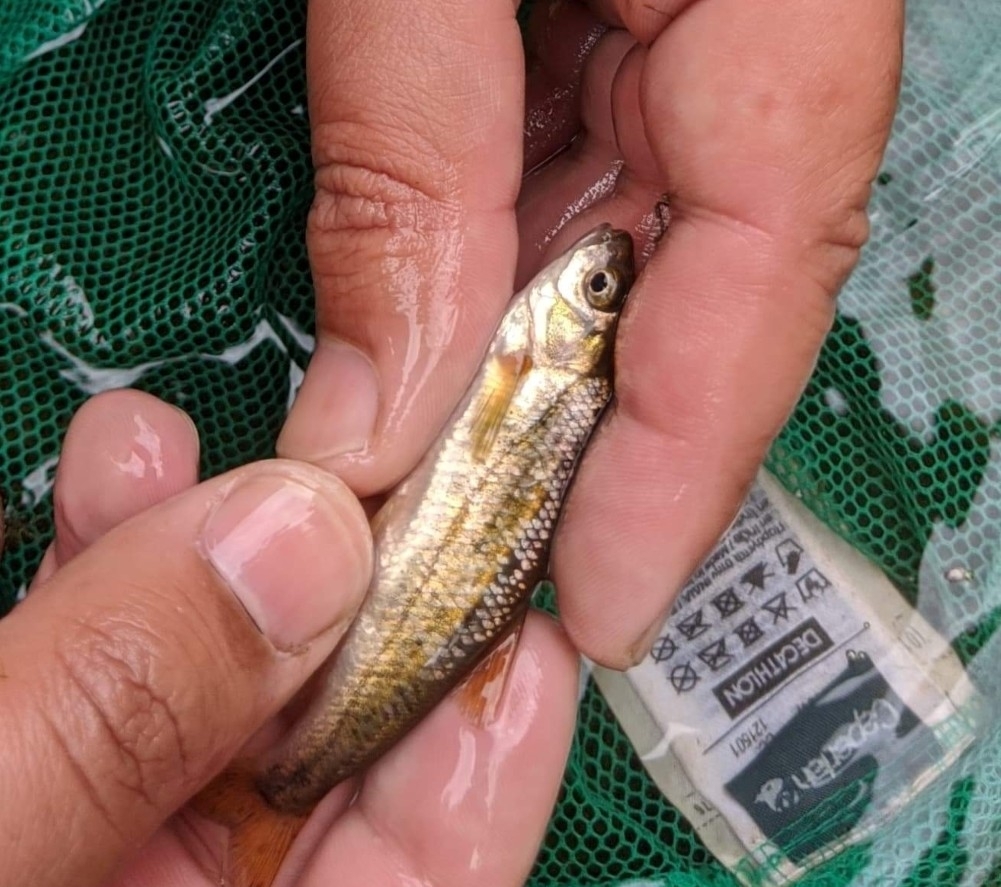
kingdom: Animalia
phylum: Chordata
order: Cypriniformes
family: Cyprinidae
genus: Iberochondrostoma
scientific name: Iberochondrostoma lusitanicum
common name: Portuguese pardelha
